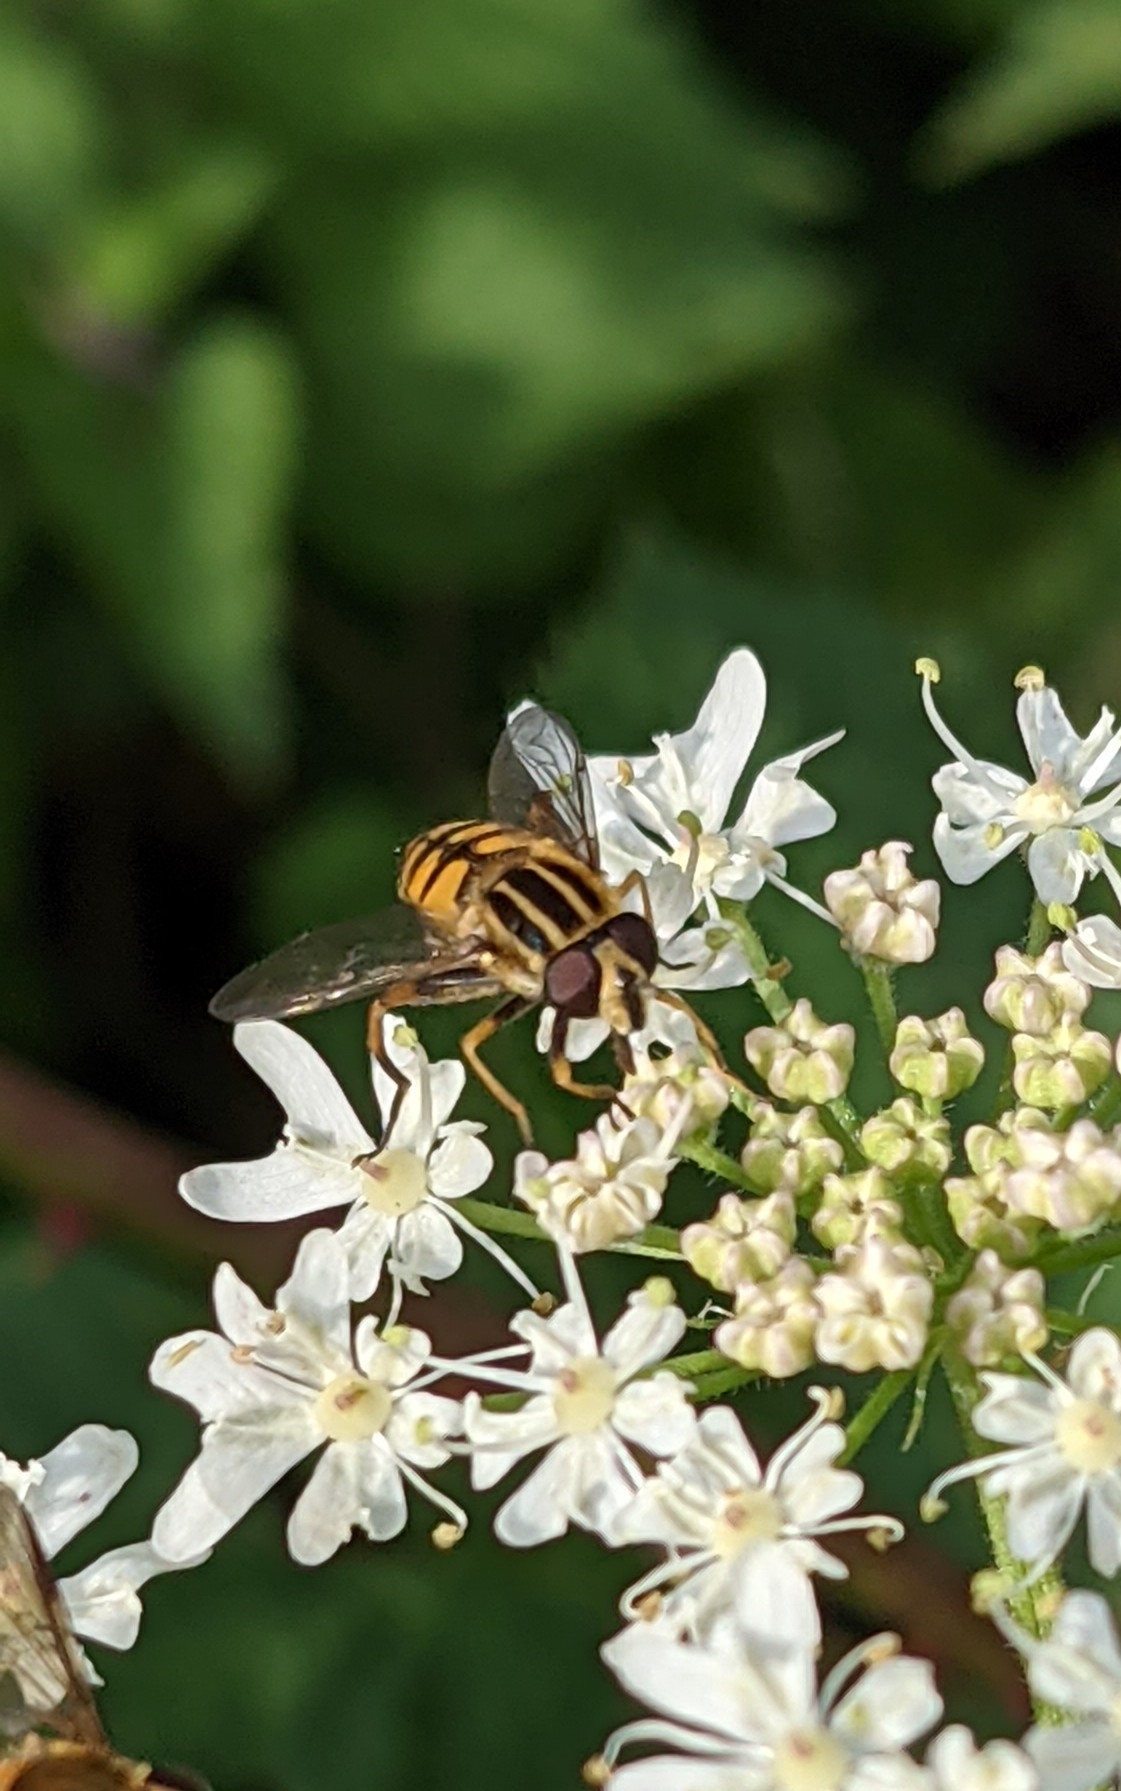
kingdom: Animalia
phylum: Arthropoda
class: Insecta
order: Diptera
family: Syrphidae
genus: Helophilus
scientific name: Helophilus pendulus
